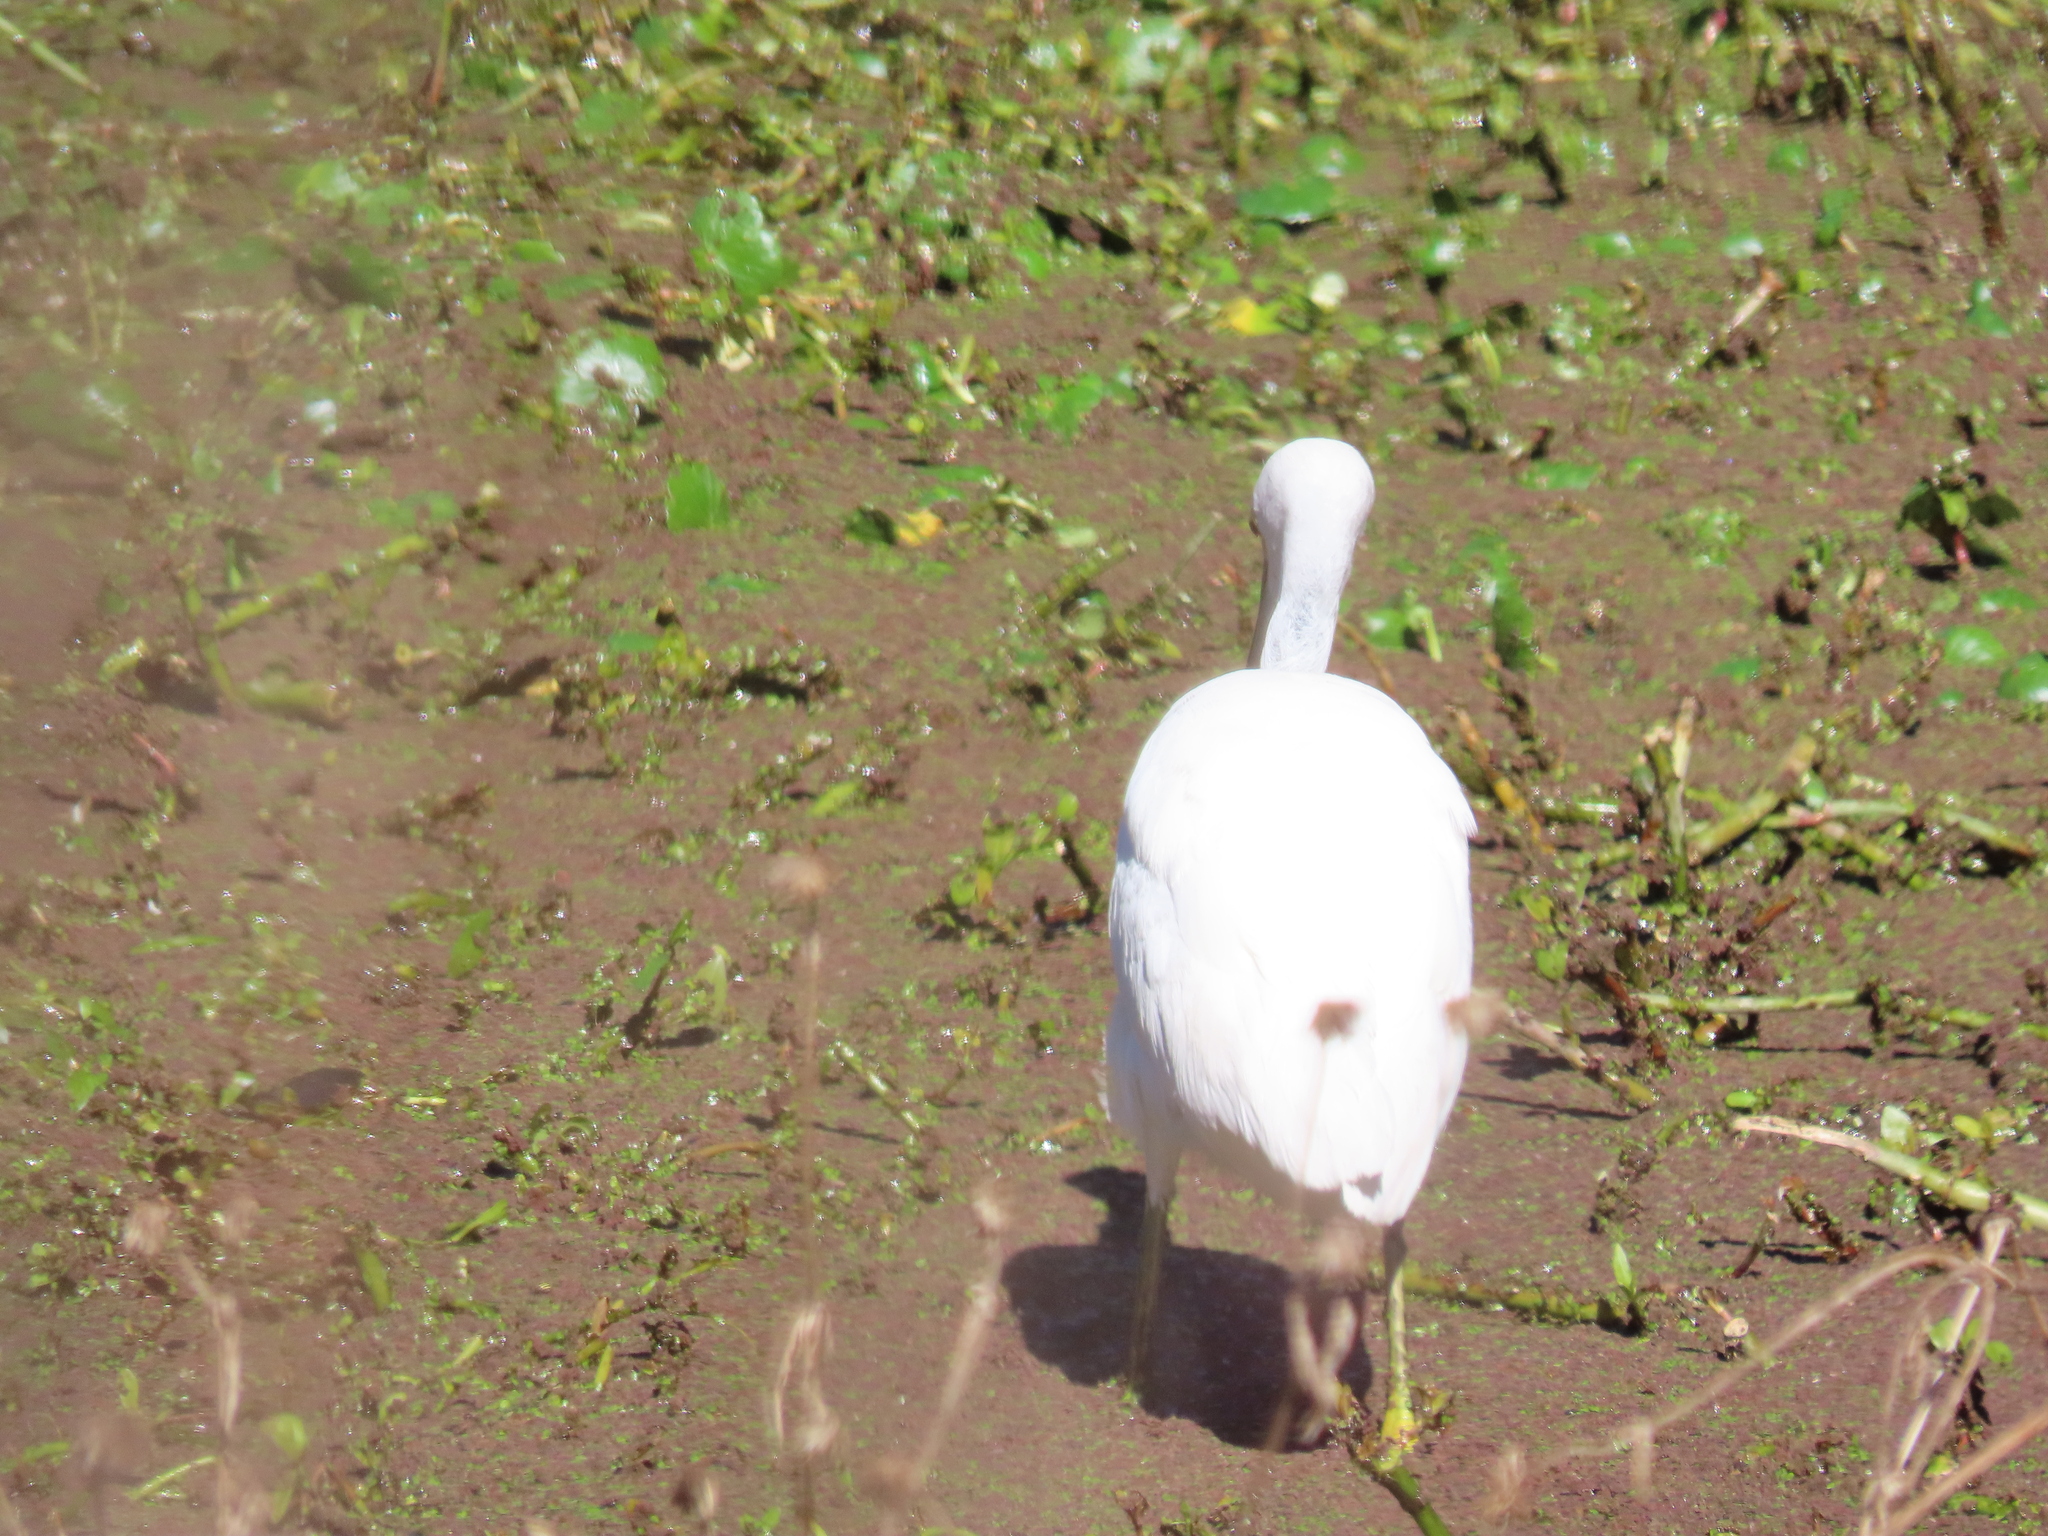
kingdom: Animalia
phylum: Chordata
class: Aves
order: Pelecaniformes
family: Ardeidae
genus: Egretta
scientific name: Egretta thula
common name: Snowy egret
